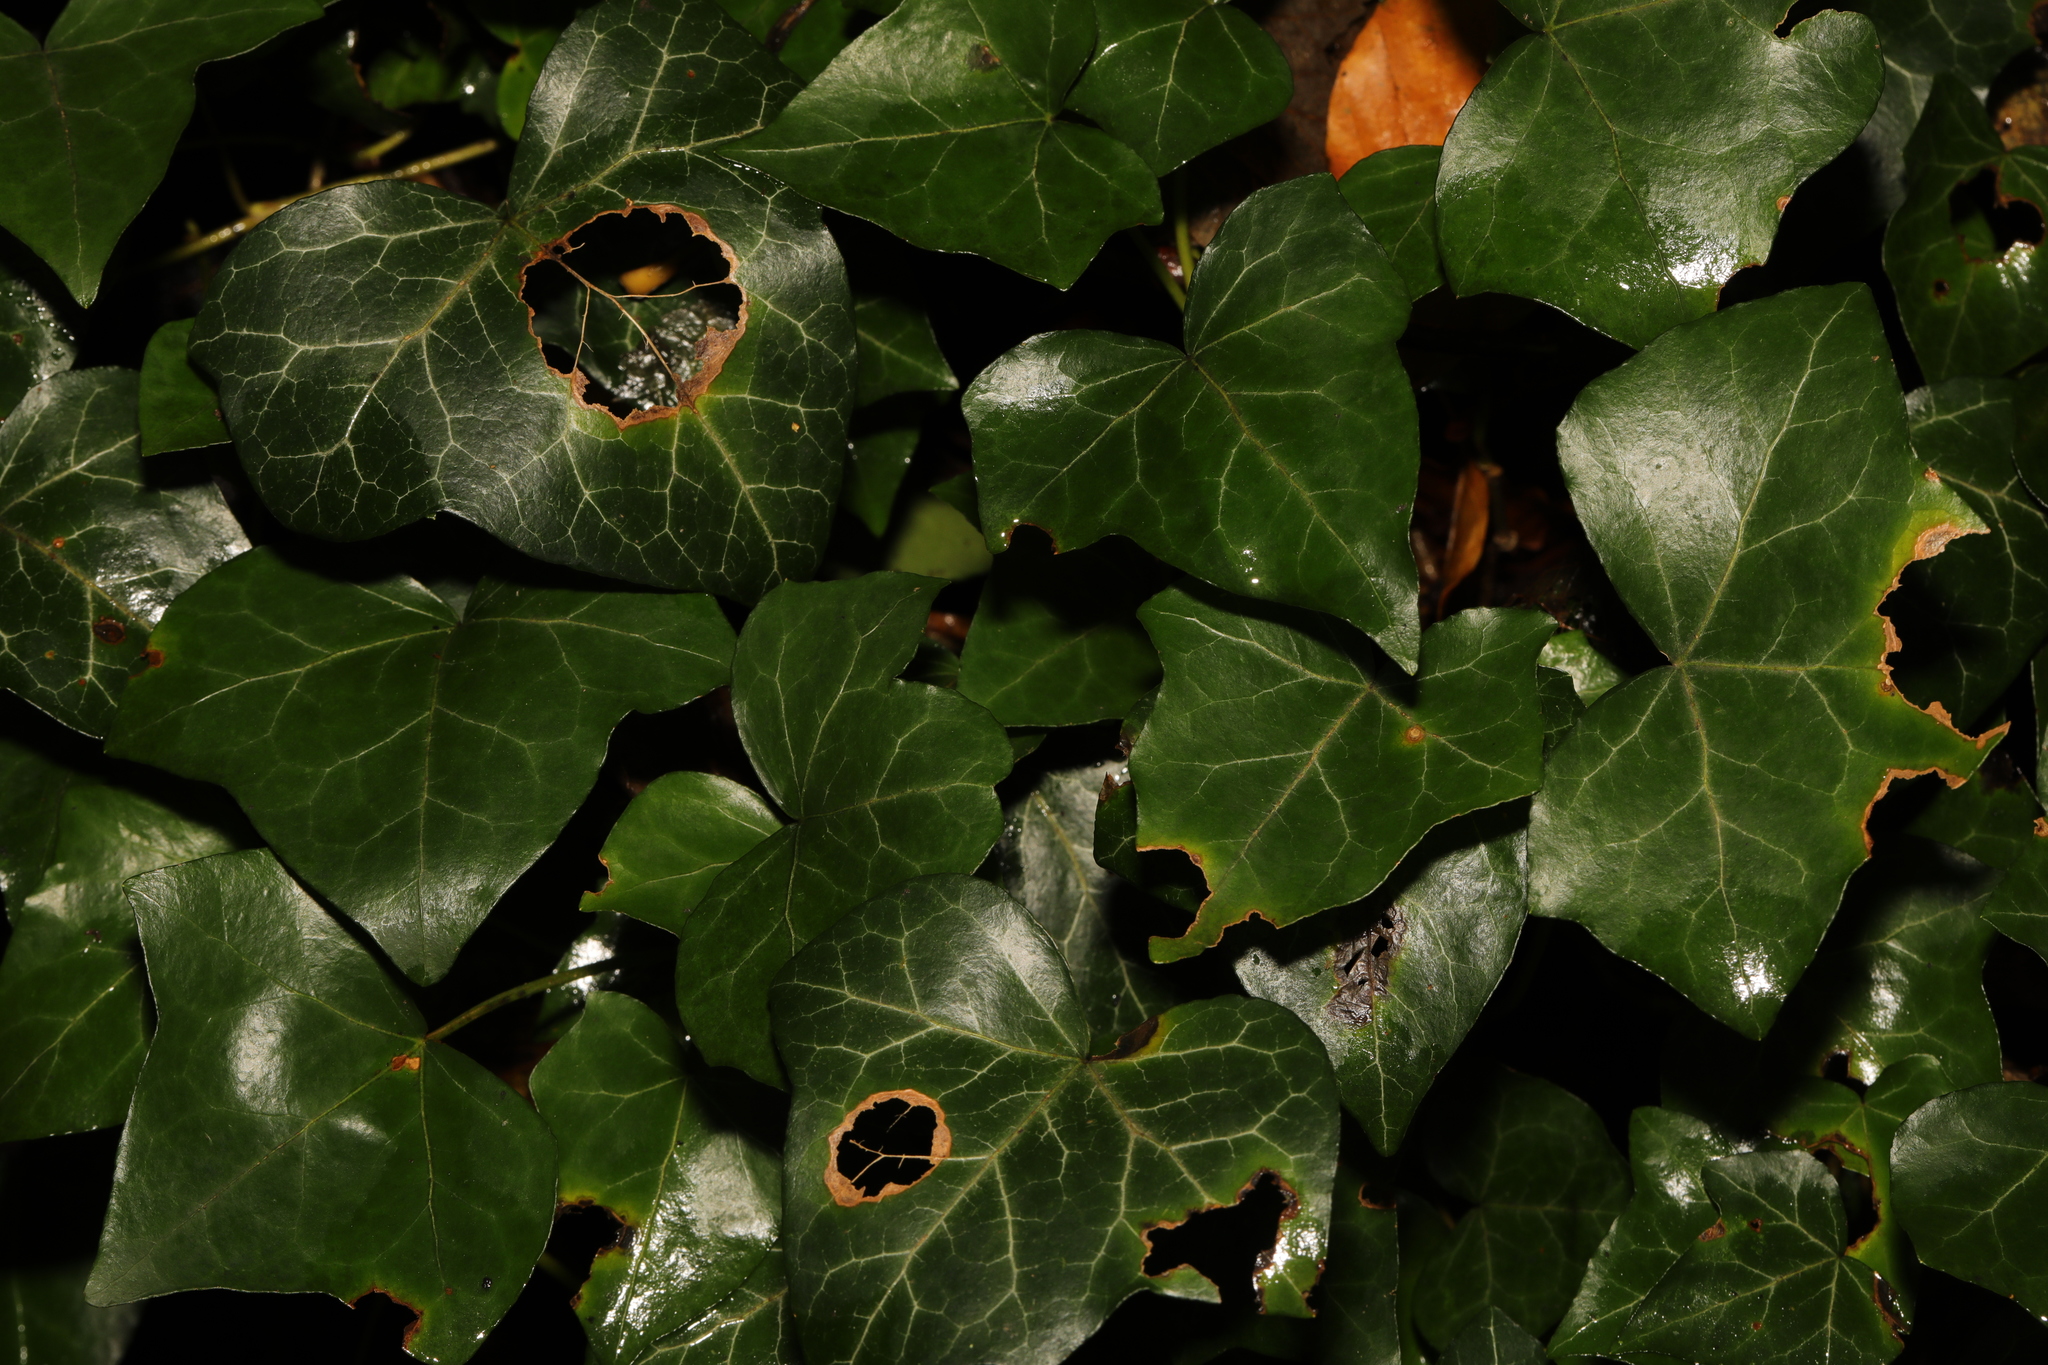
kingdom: Plantae
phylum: Tracheophyta
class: Magnoliopsida
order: Apiales
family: Araliaceae
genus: Hedera
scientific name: Hedera helix
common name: Ivy
